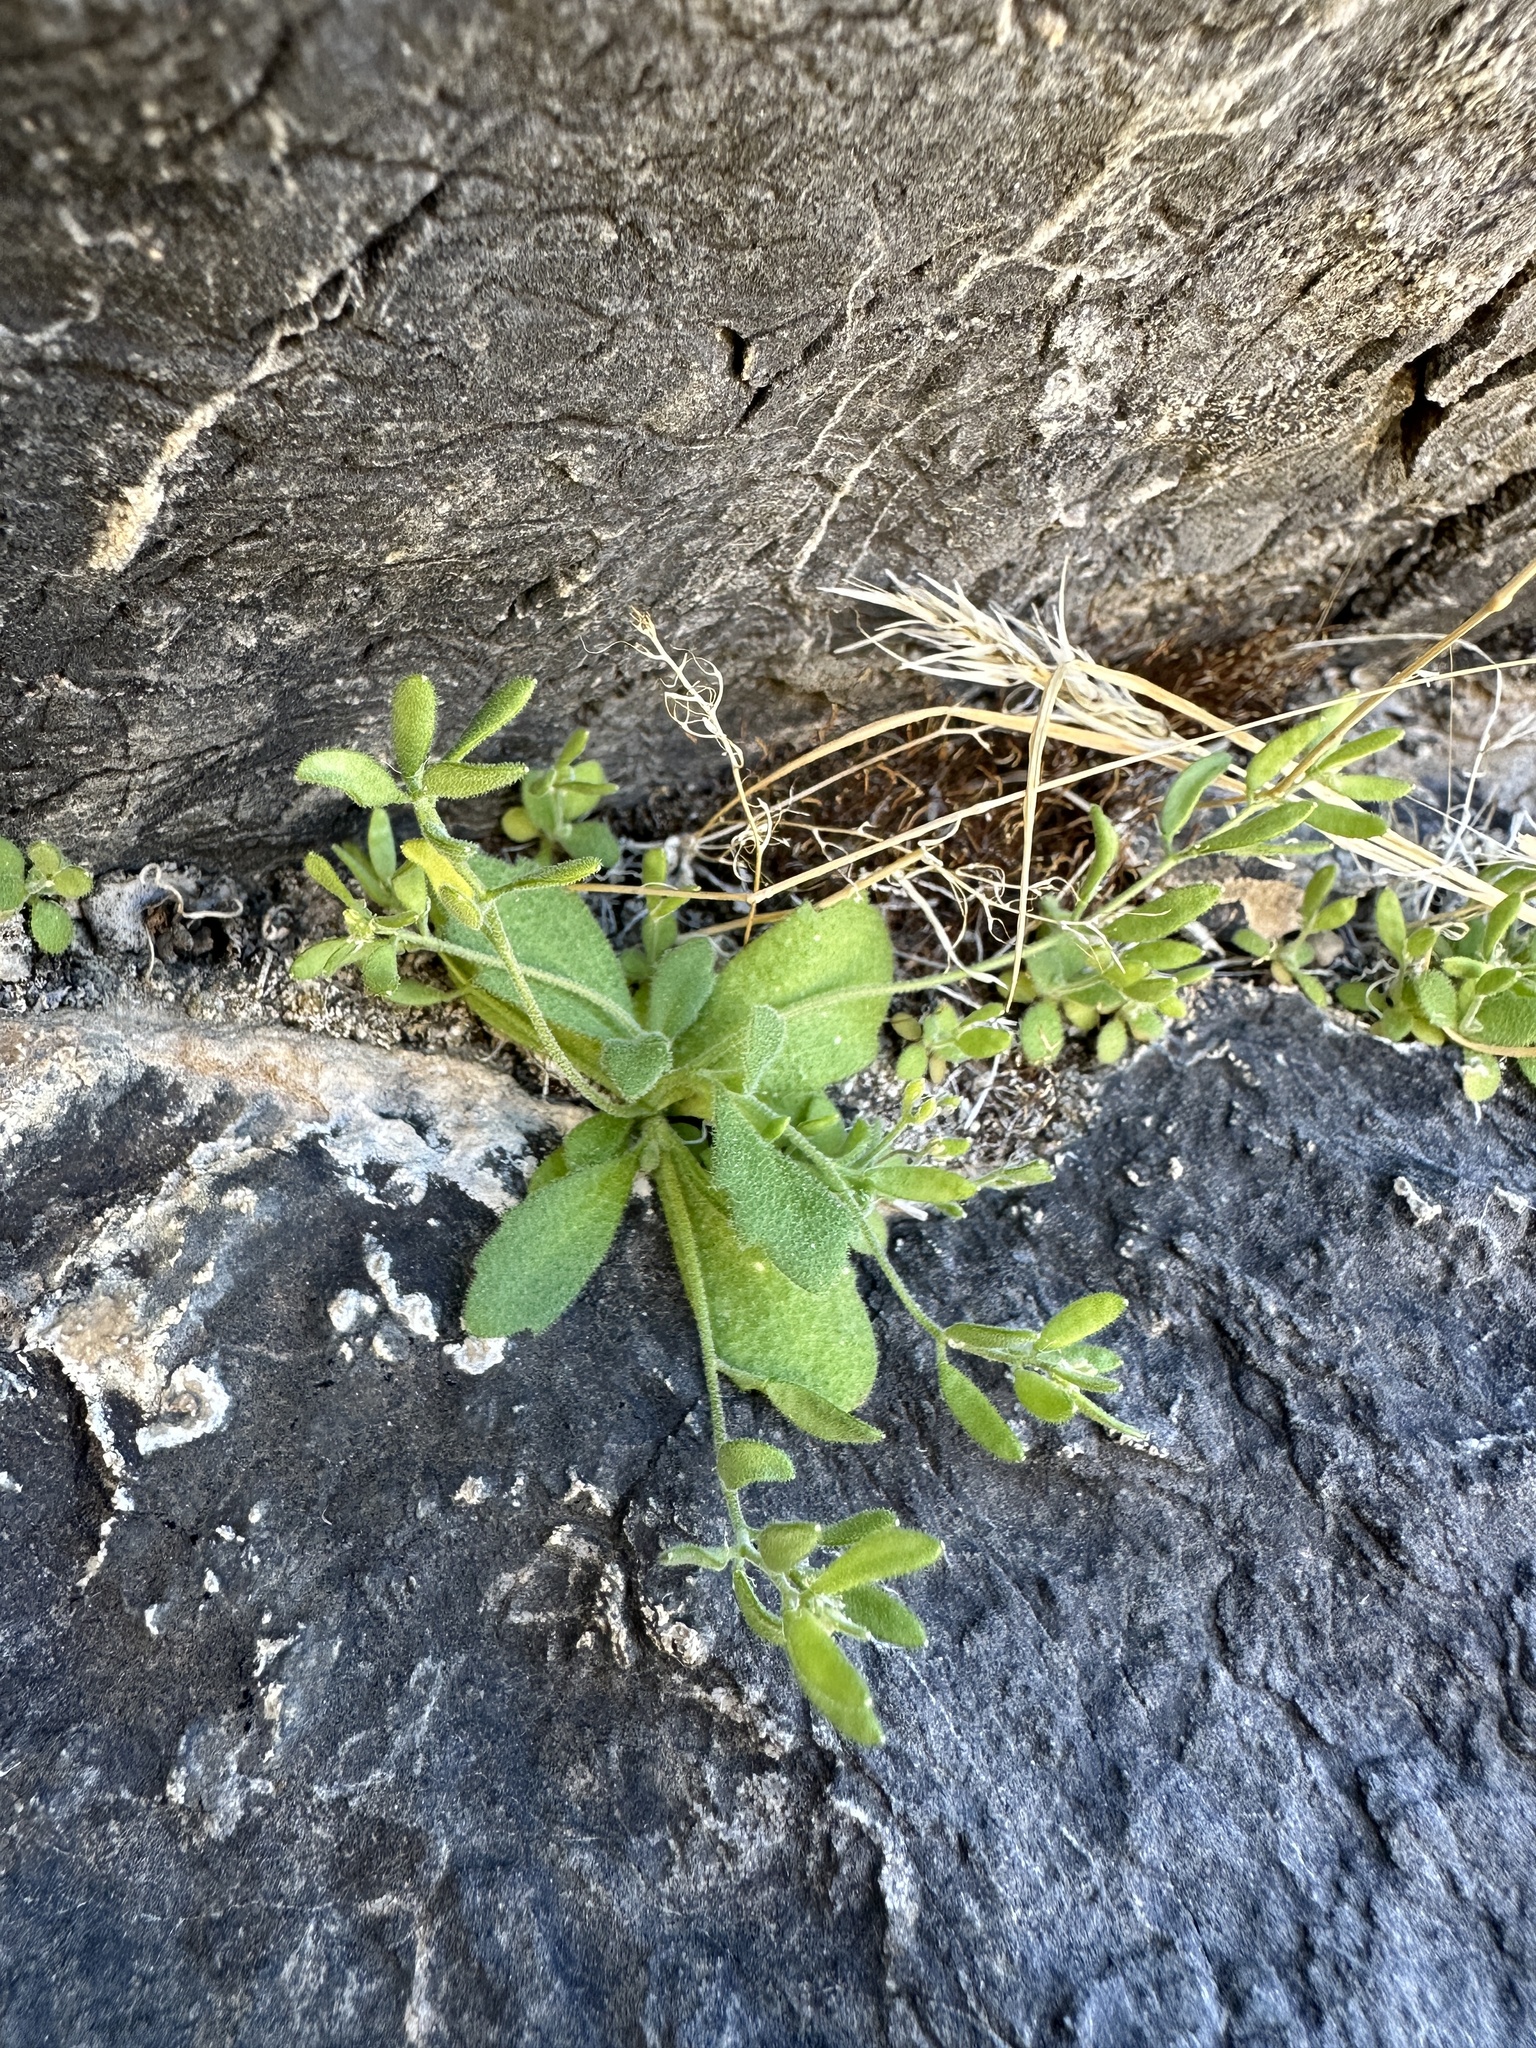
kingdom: Plantae
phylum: Tracheophyta
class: Magnoliopsida
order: Brassicales
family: Brassicaceae
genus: Tomostima
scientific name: Tomostima cuneifolia
